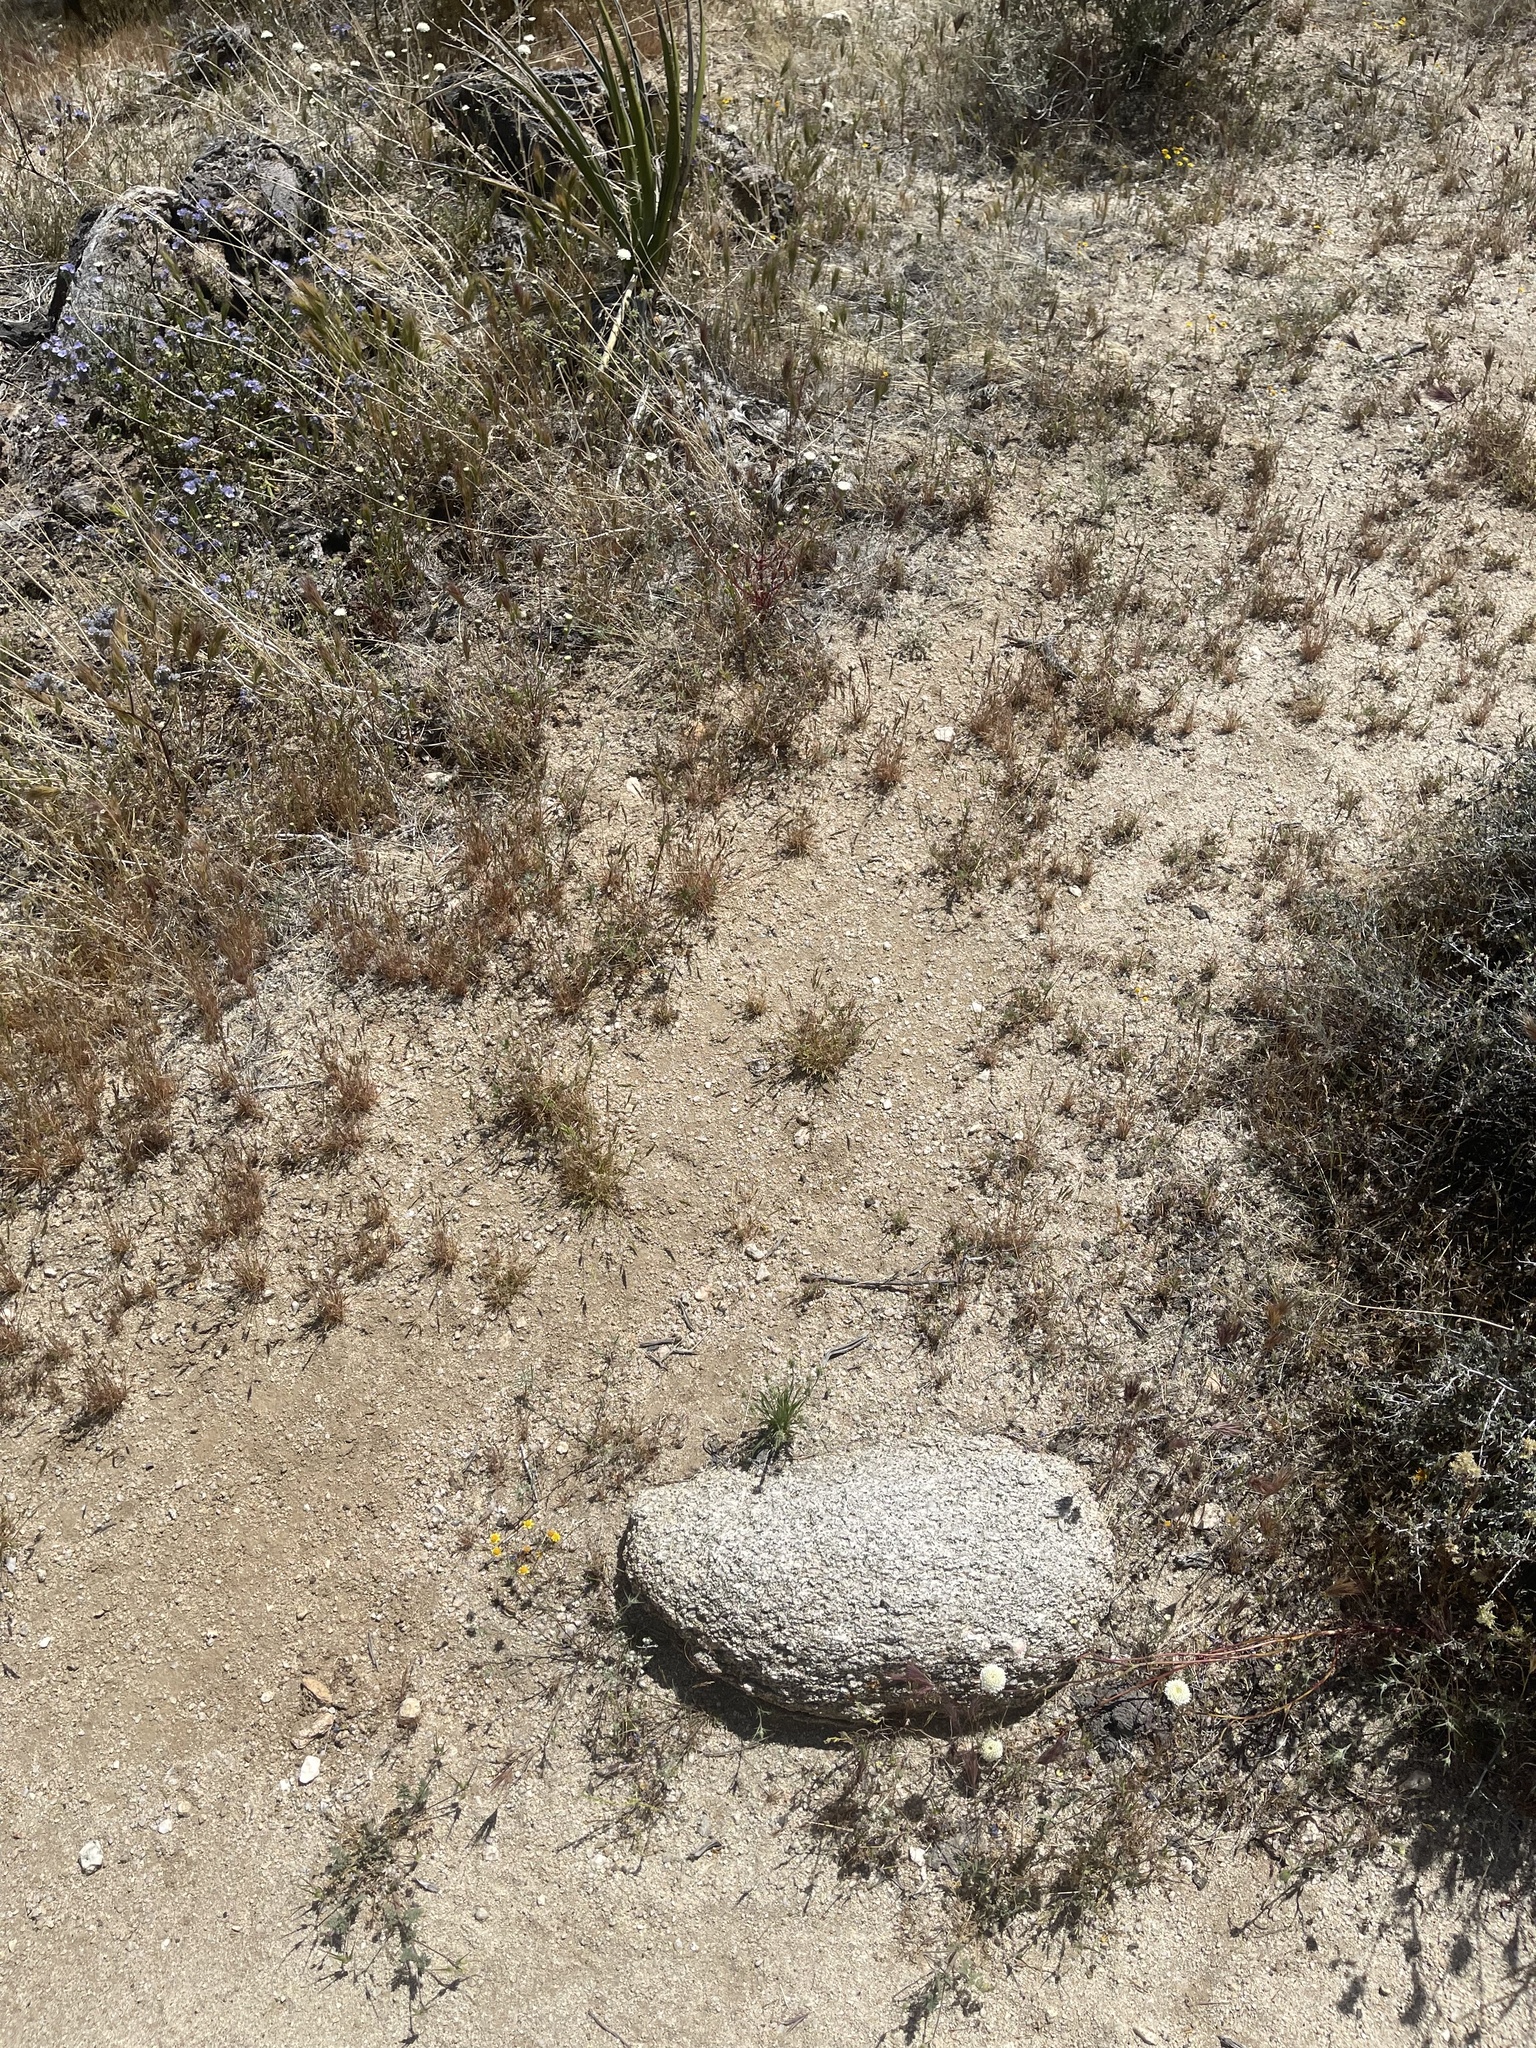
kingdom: Plantae
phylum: Tracheophyta
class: Magnoliopsida
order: Lamiales
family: Plantaginaceae
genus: Plantago
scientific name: Plantago patagonica
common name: Patagonia indian-wheat
